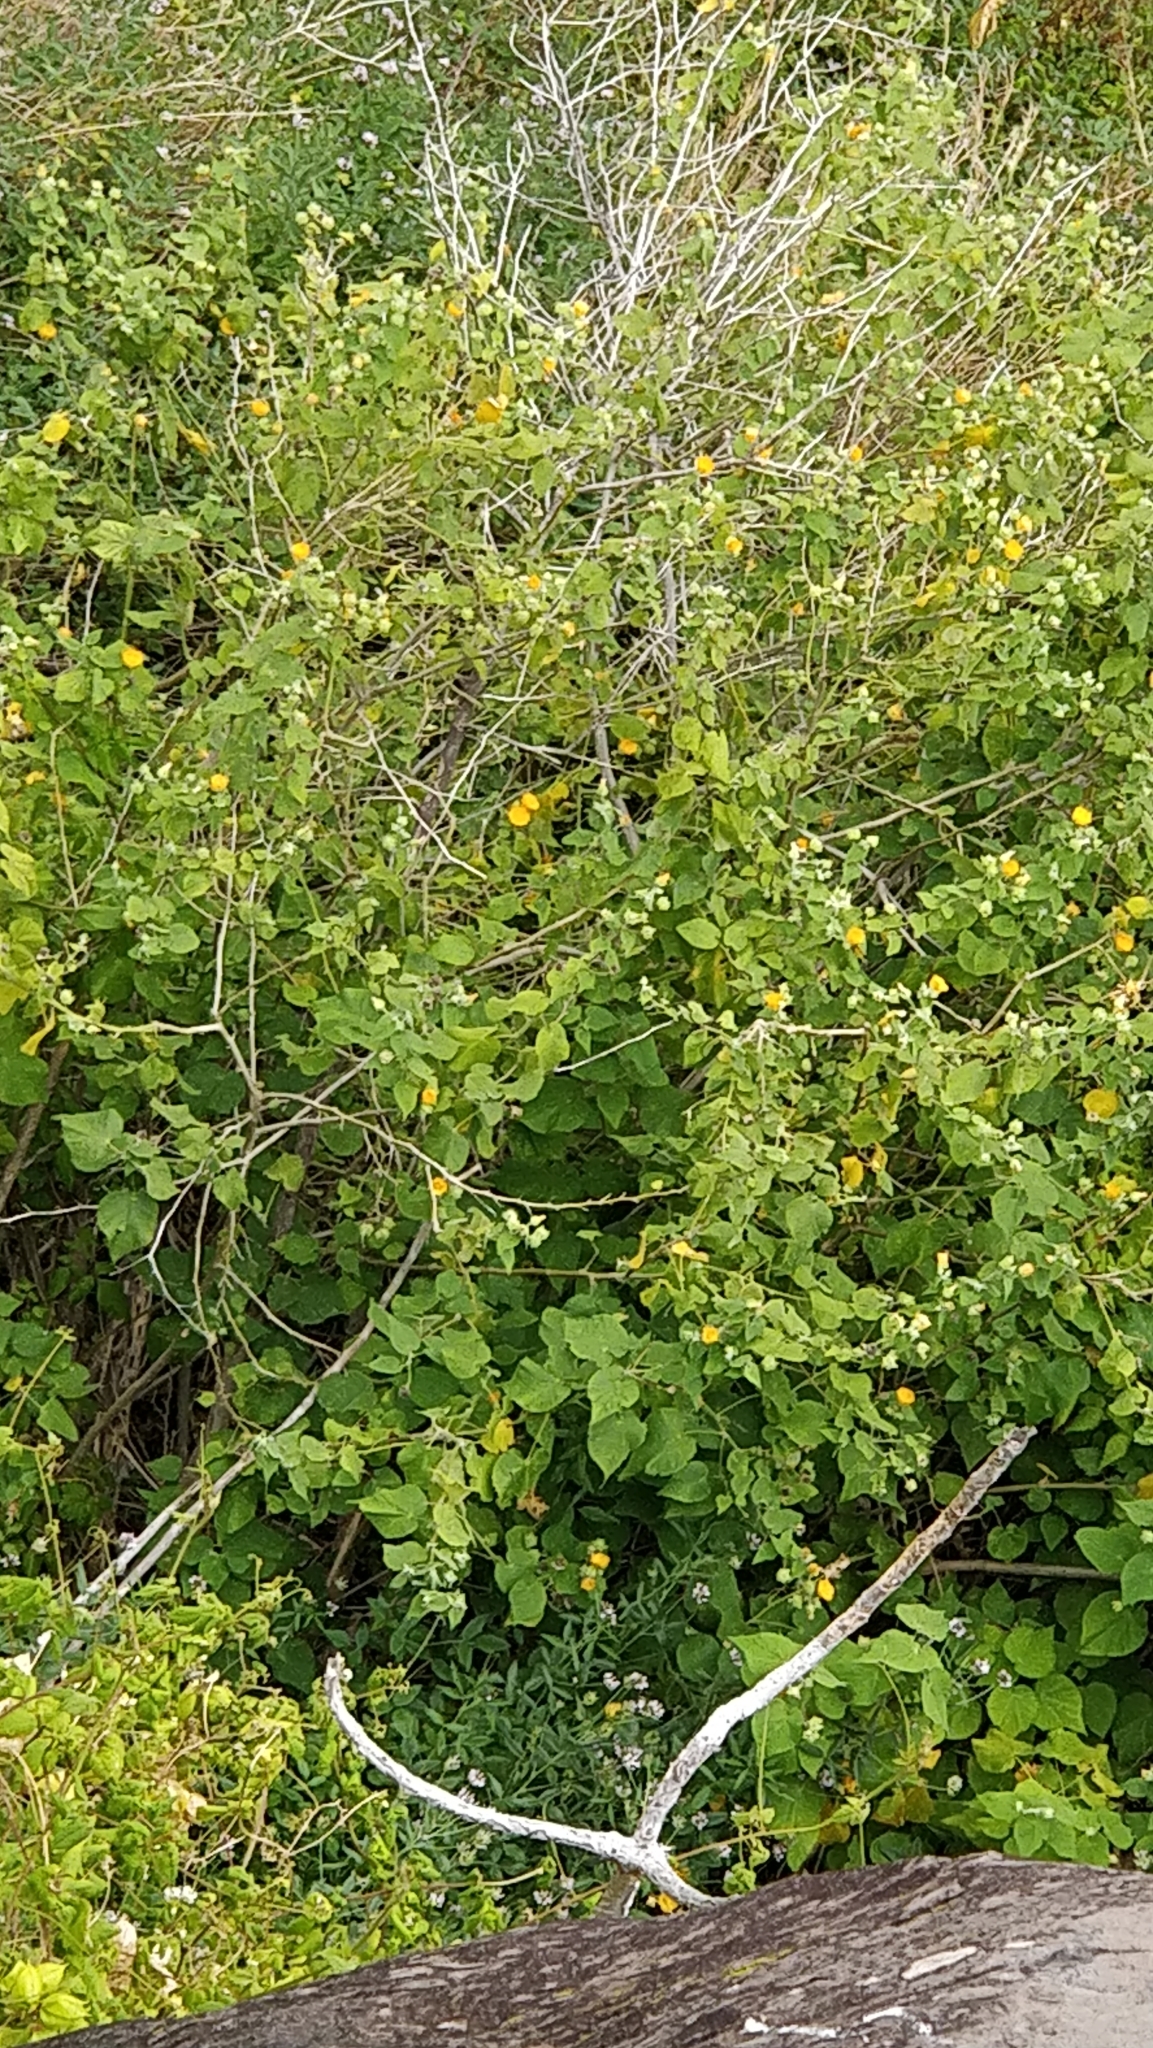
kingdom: Plantae
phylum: Tracheophyta
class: Magnoliopsida
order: Malvales
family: Malvaceae
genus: Abutilon
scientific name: Abutilon grandifolium
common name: Hairy abutilon
